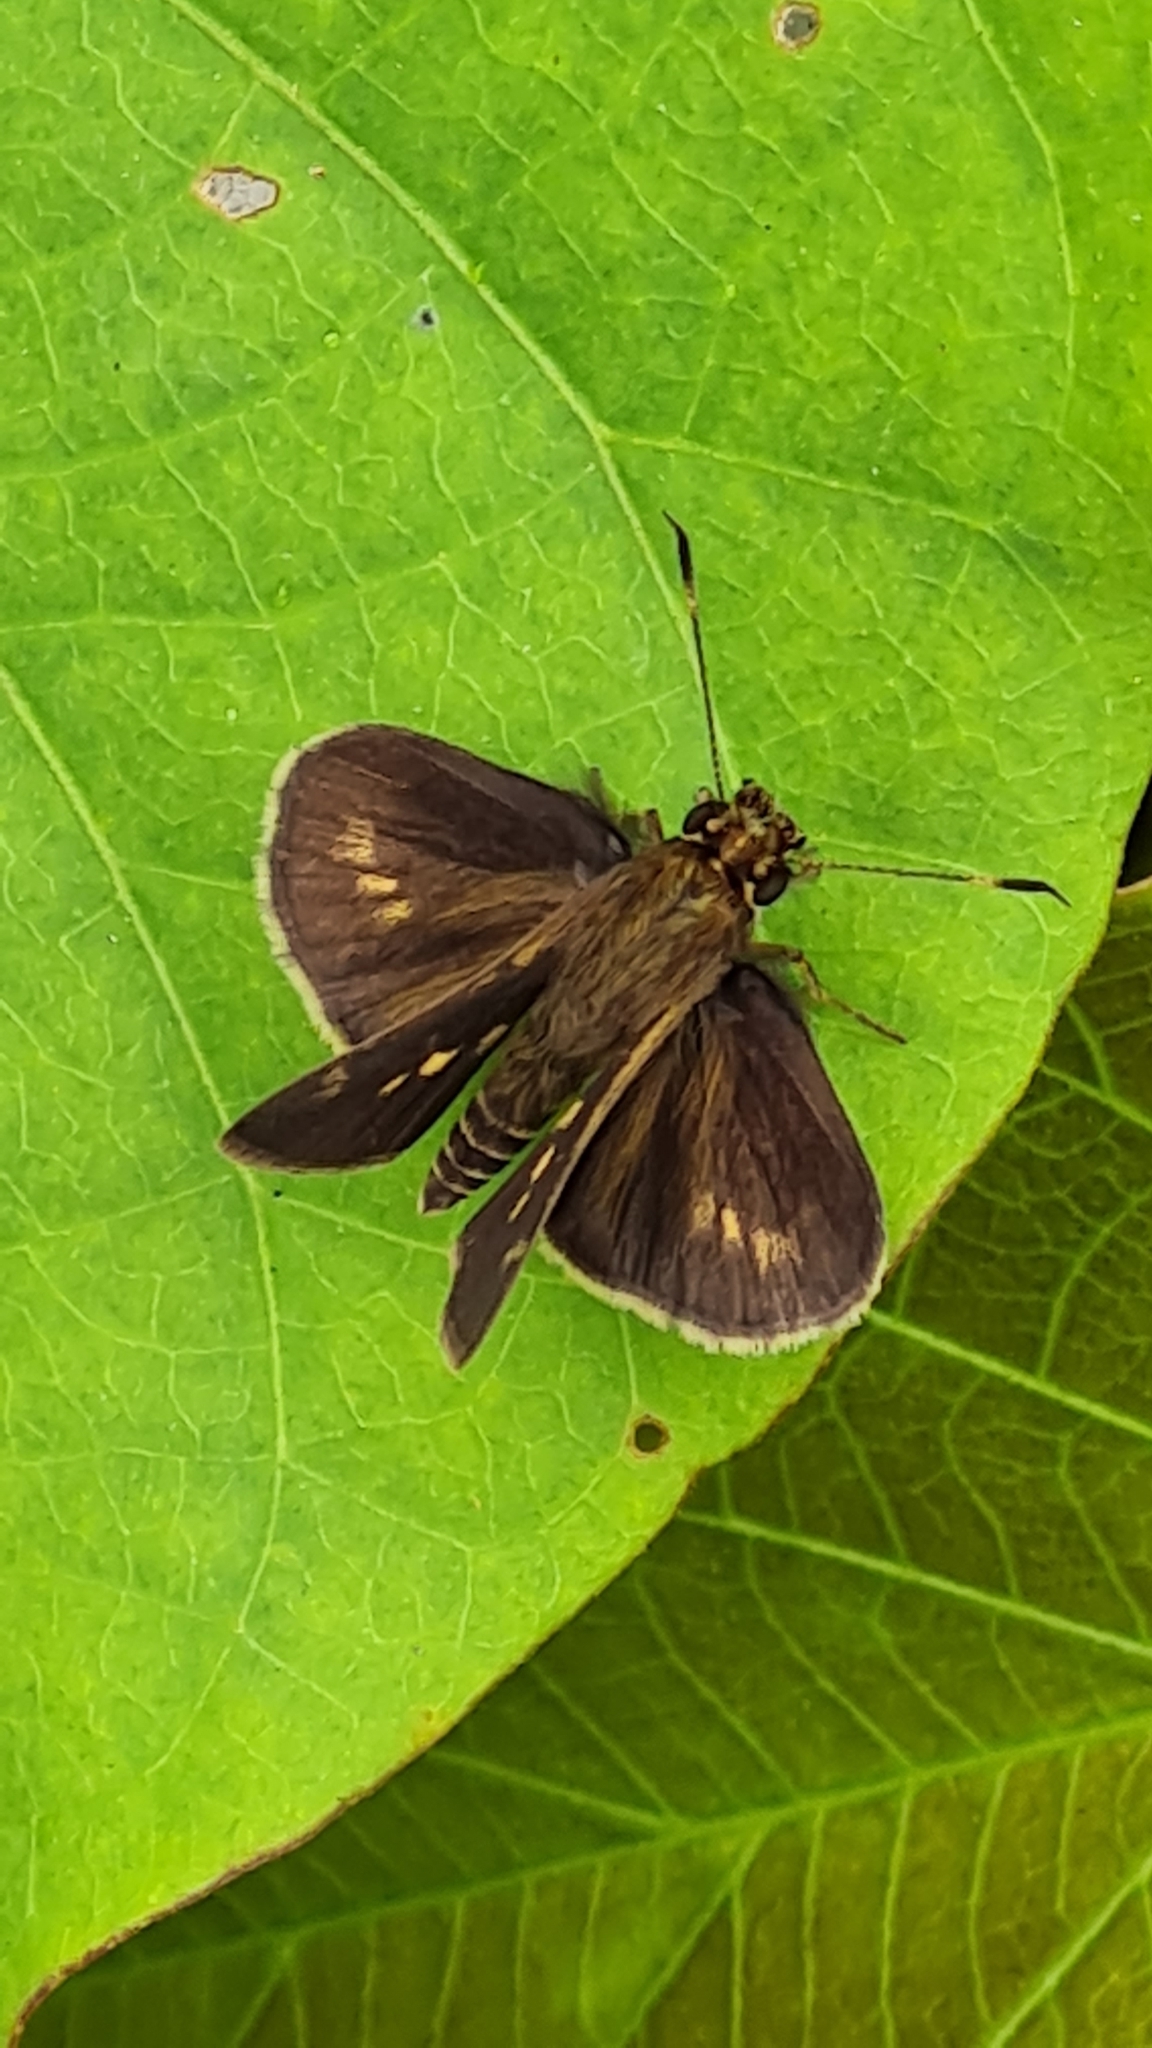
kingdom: Animalia
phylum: Arthropoda
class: Insecta
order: Lepidoptera
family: Hesperiidae
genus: Vernia
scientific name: Vernia verna
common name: Little glassywing
